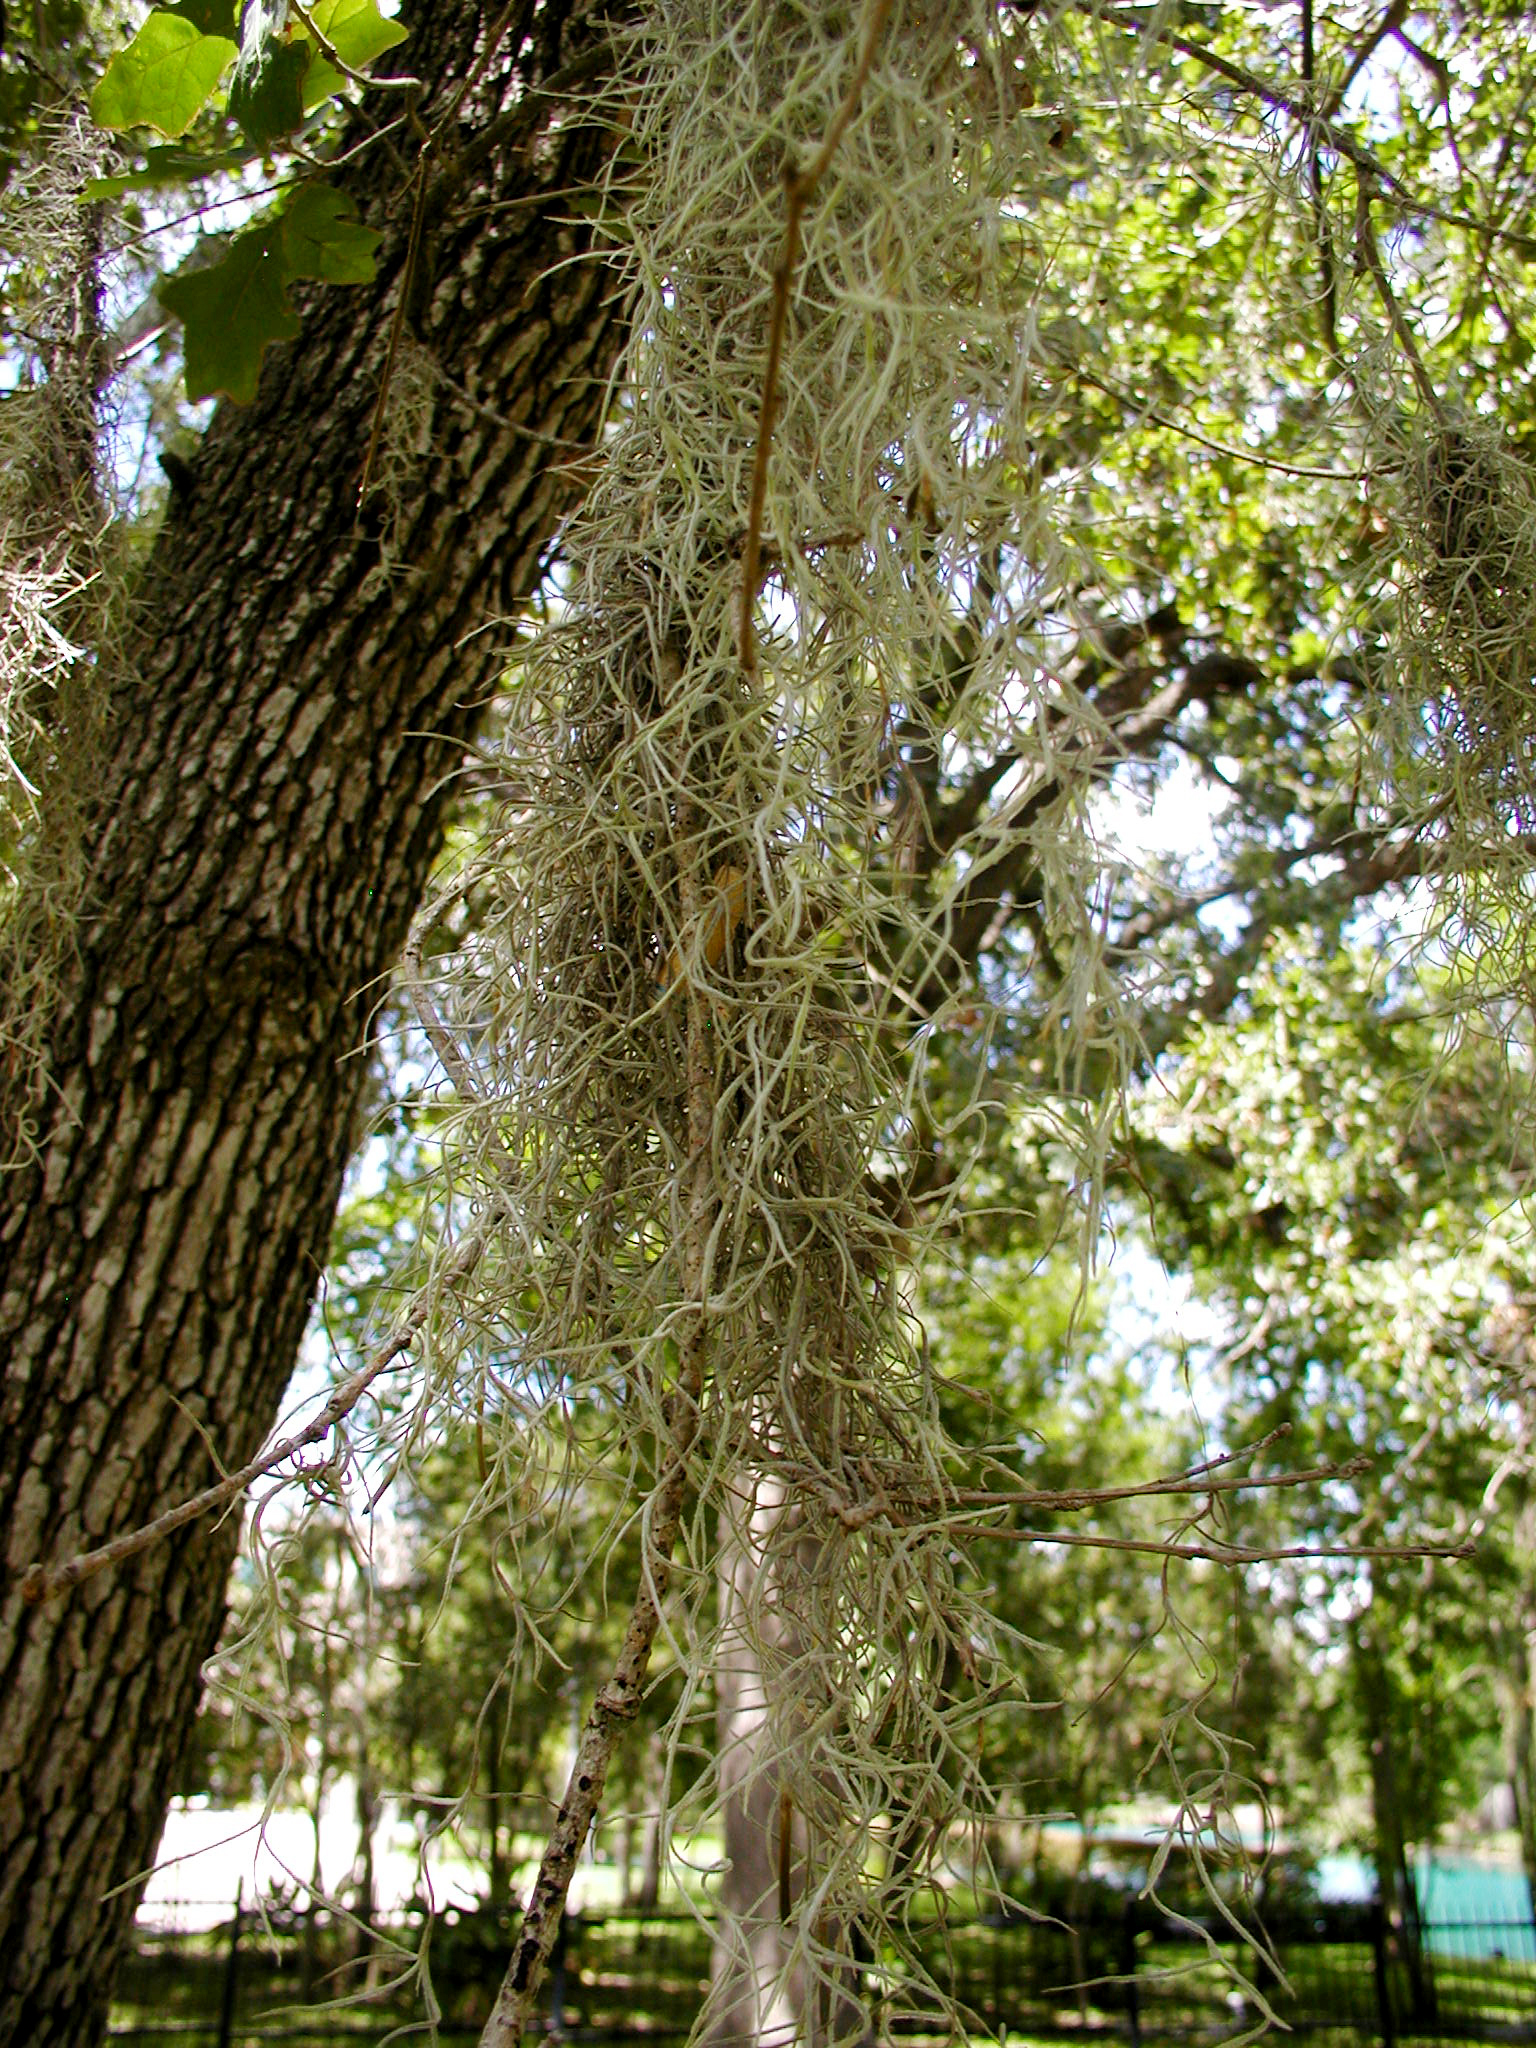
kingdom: Plantae
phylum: Tracheophyta
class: Liliopsida
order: Poales
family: Bromeliaceae
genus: Tillandsia
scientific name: Tillandsia usneoides
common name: Spanish moss
